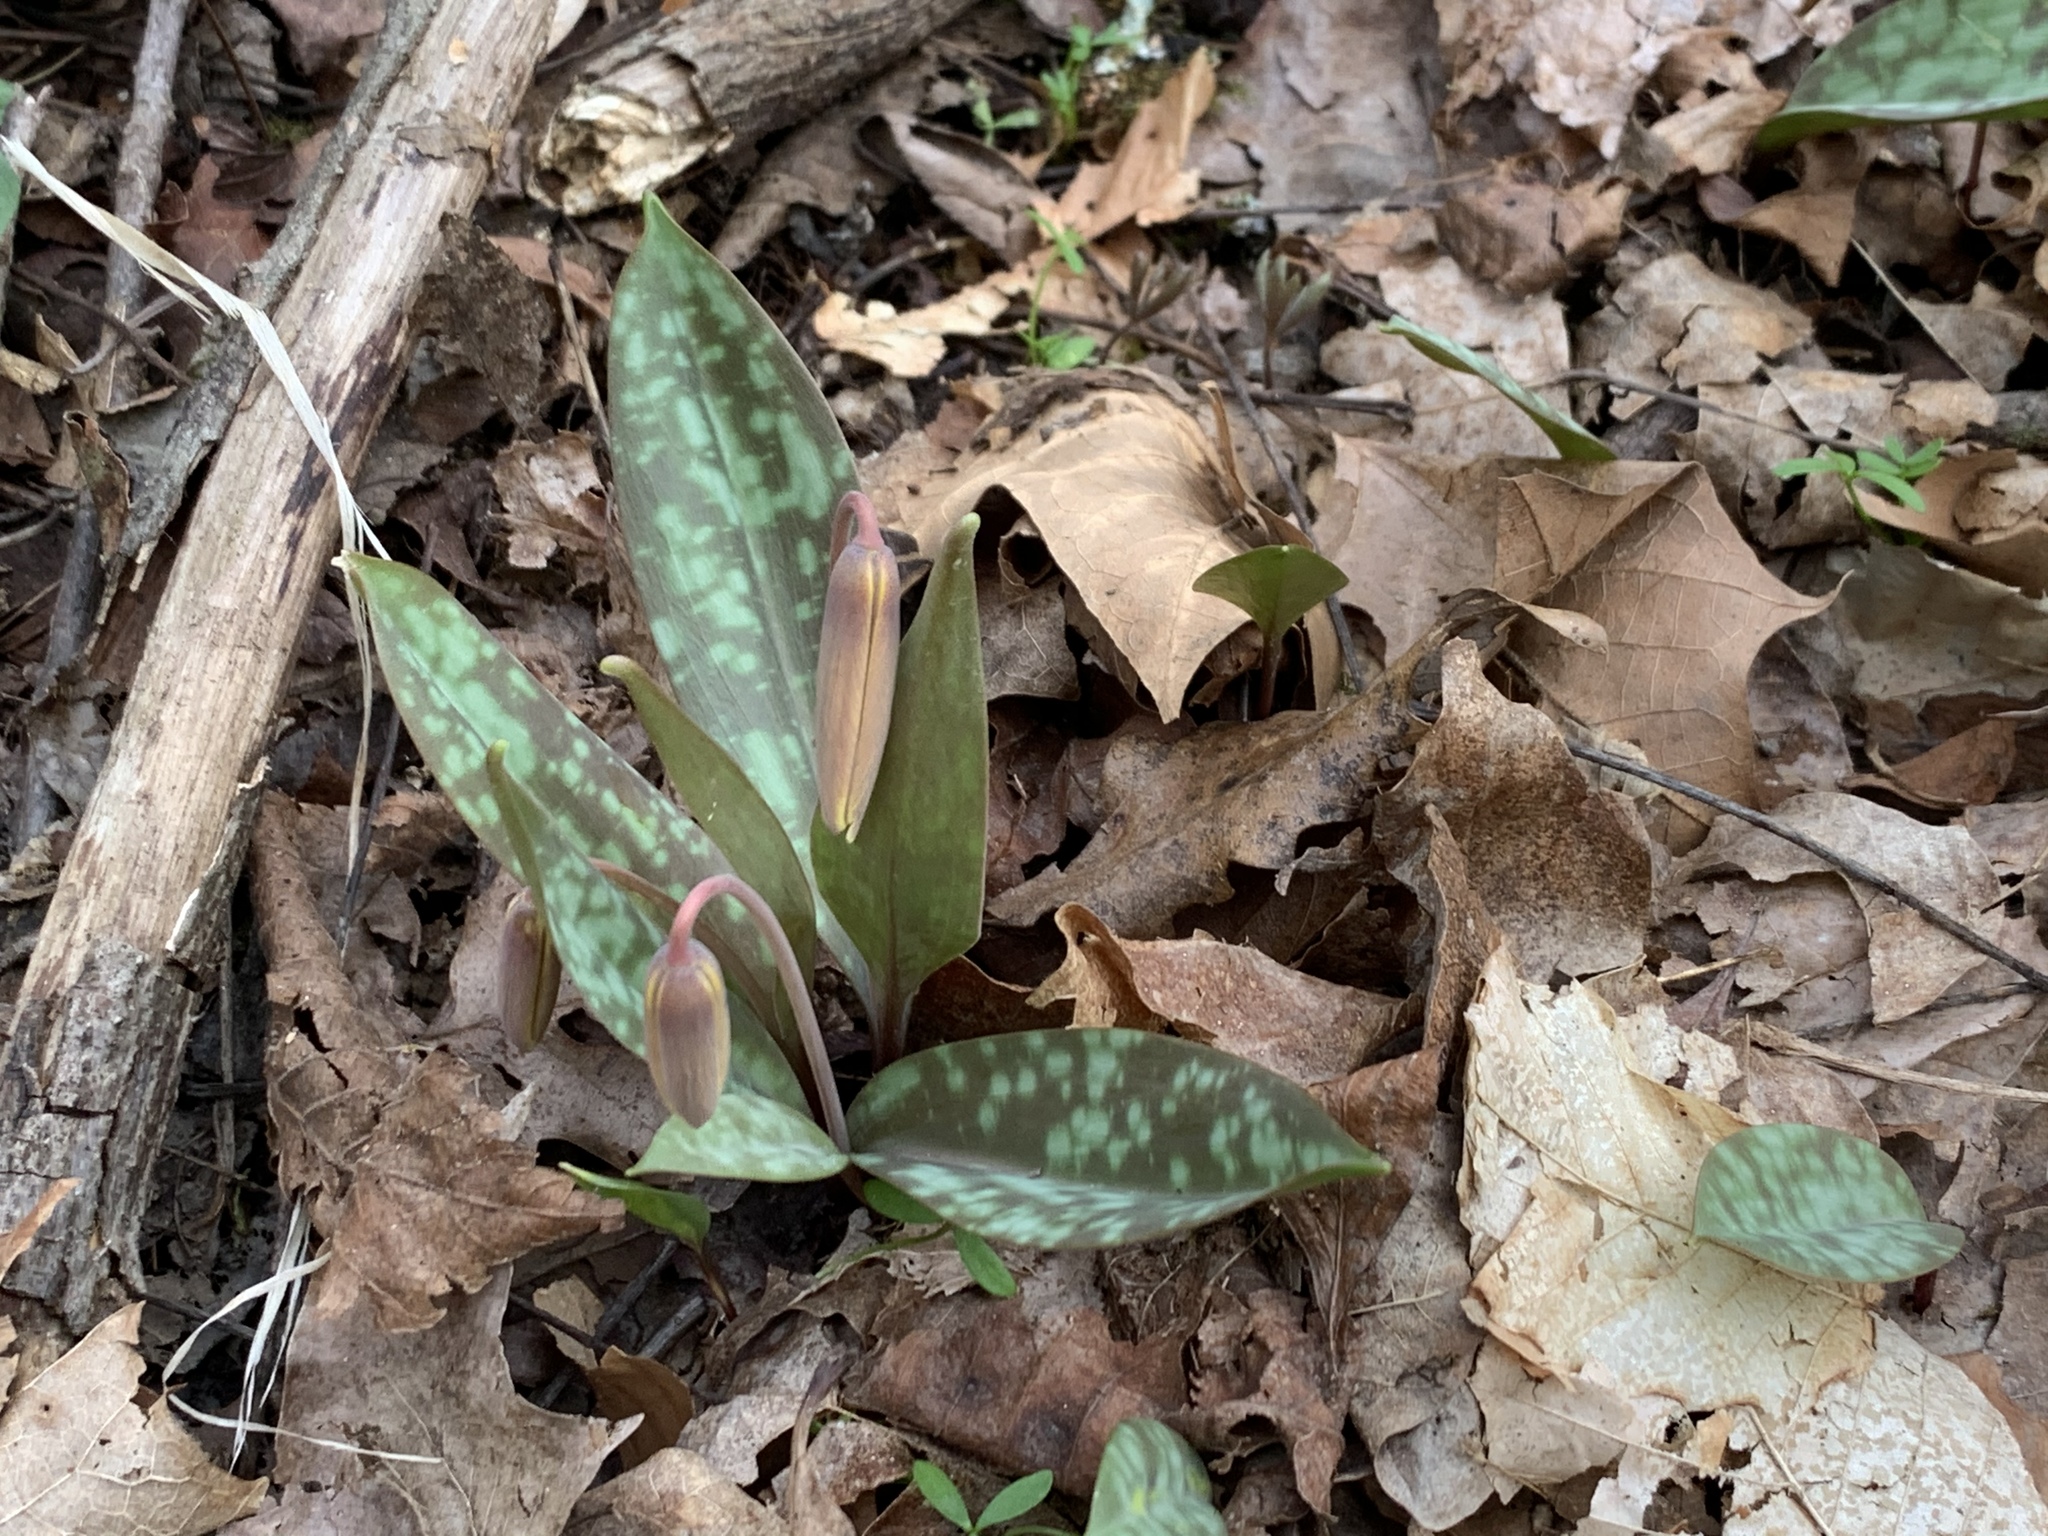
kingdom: Plantae
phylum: Tracheophyta
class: Liliopsida
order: Liliales
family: Liliaceae
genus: Erythronium
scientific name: Erythronium americanum
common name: Yellow adder's-tongue
